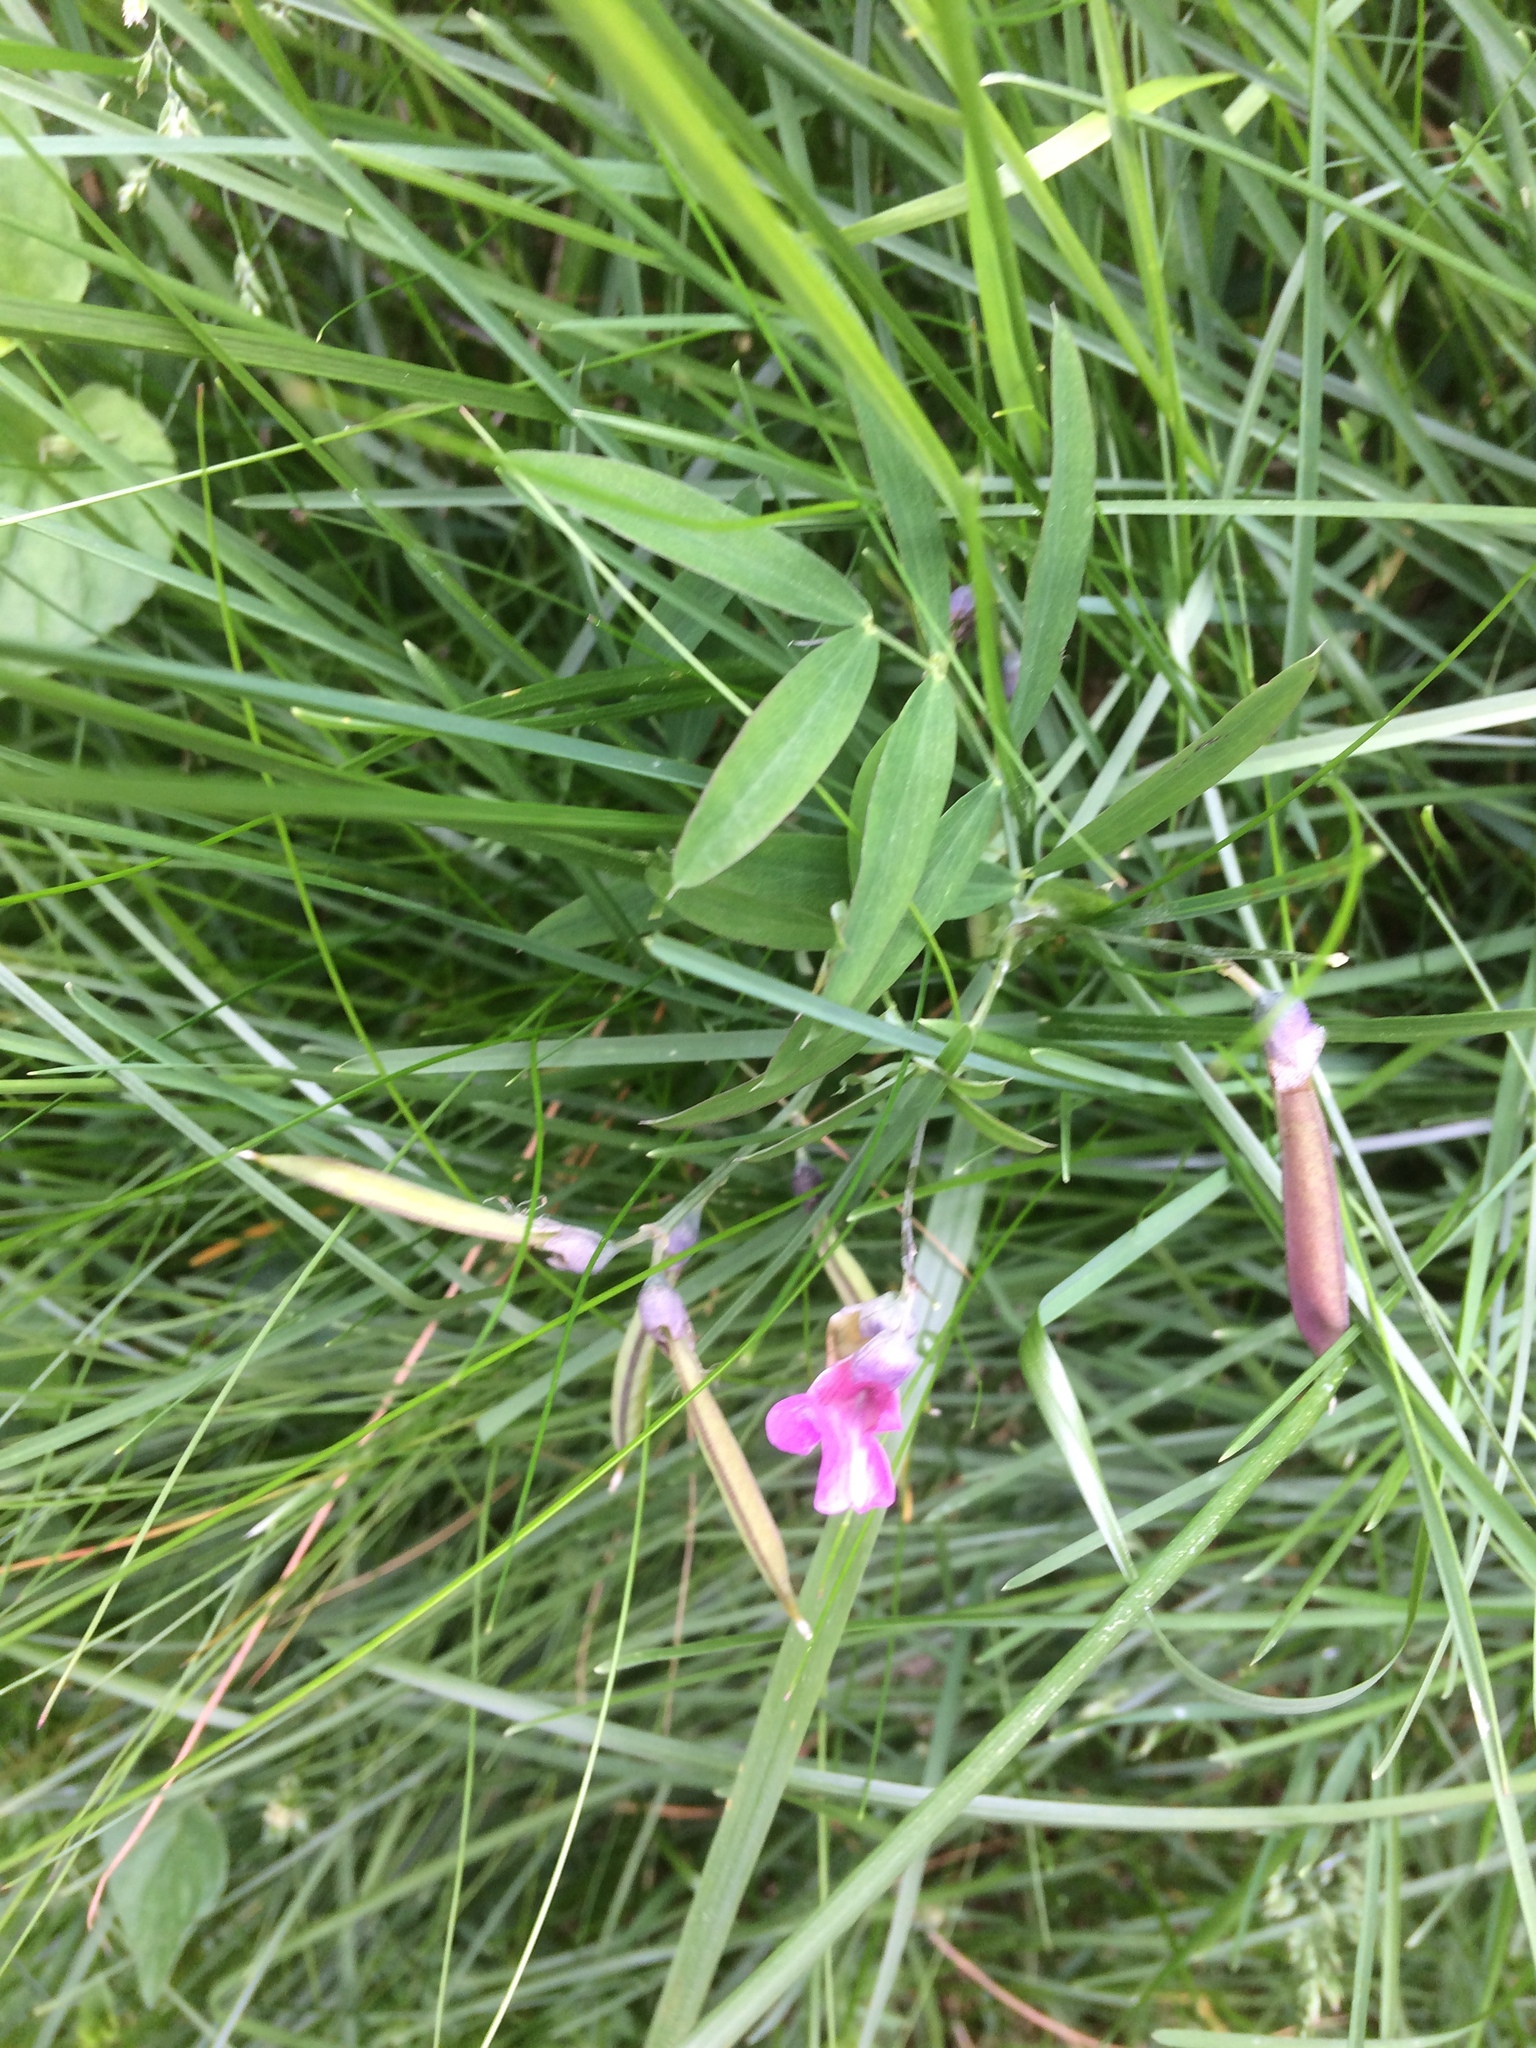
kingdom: Plantae
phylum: Tracheophyta
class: Magnoliopsida
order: Fabales
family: Fabaceae
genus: Lathyrus
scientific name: Lathyrus linifolius
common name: Bitter-vetch
